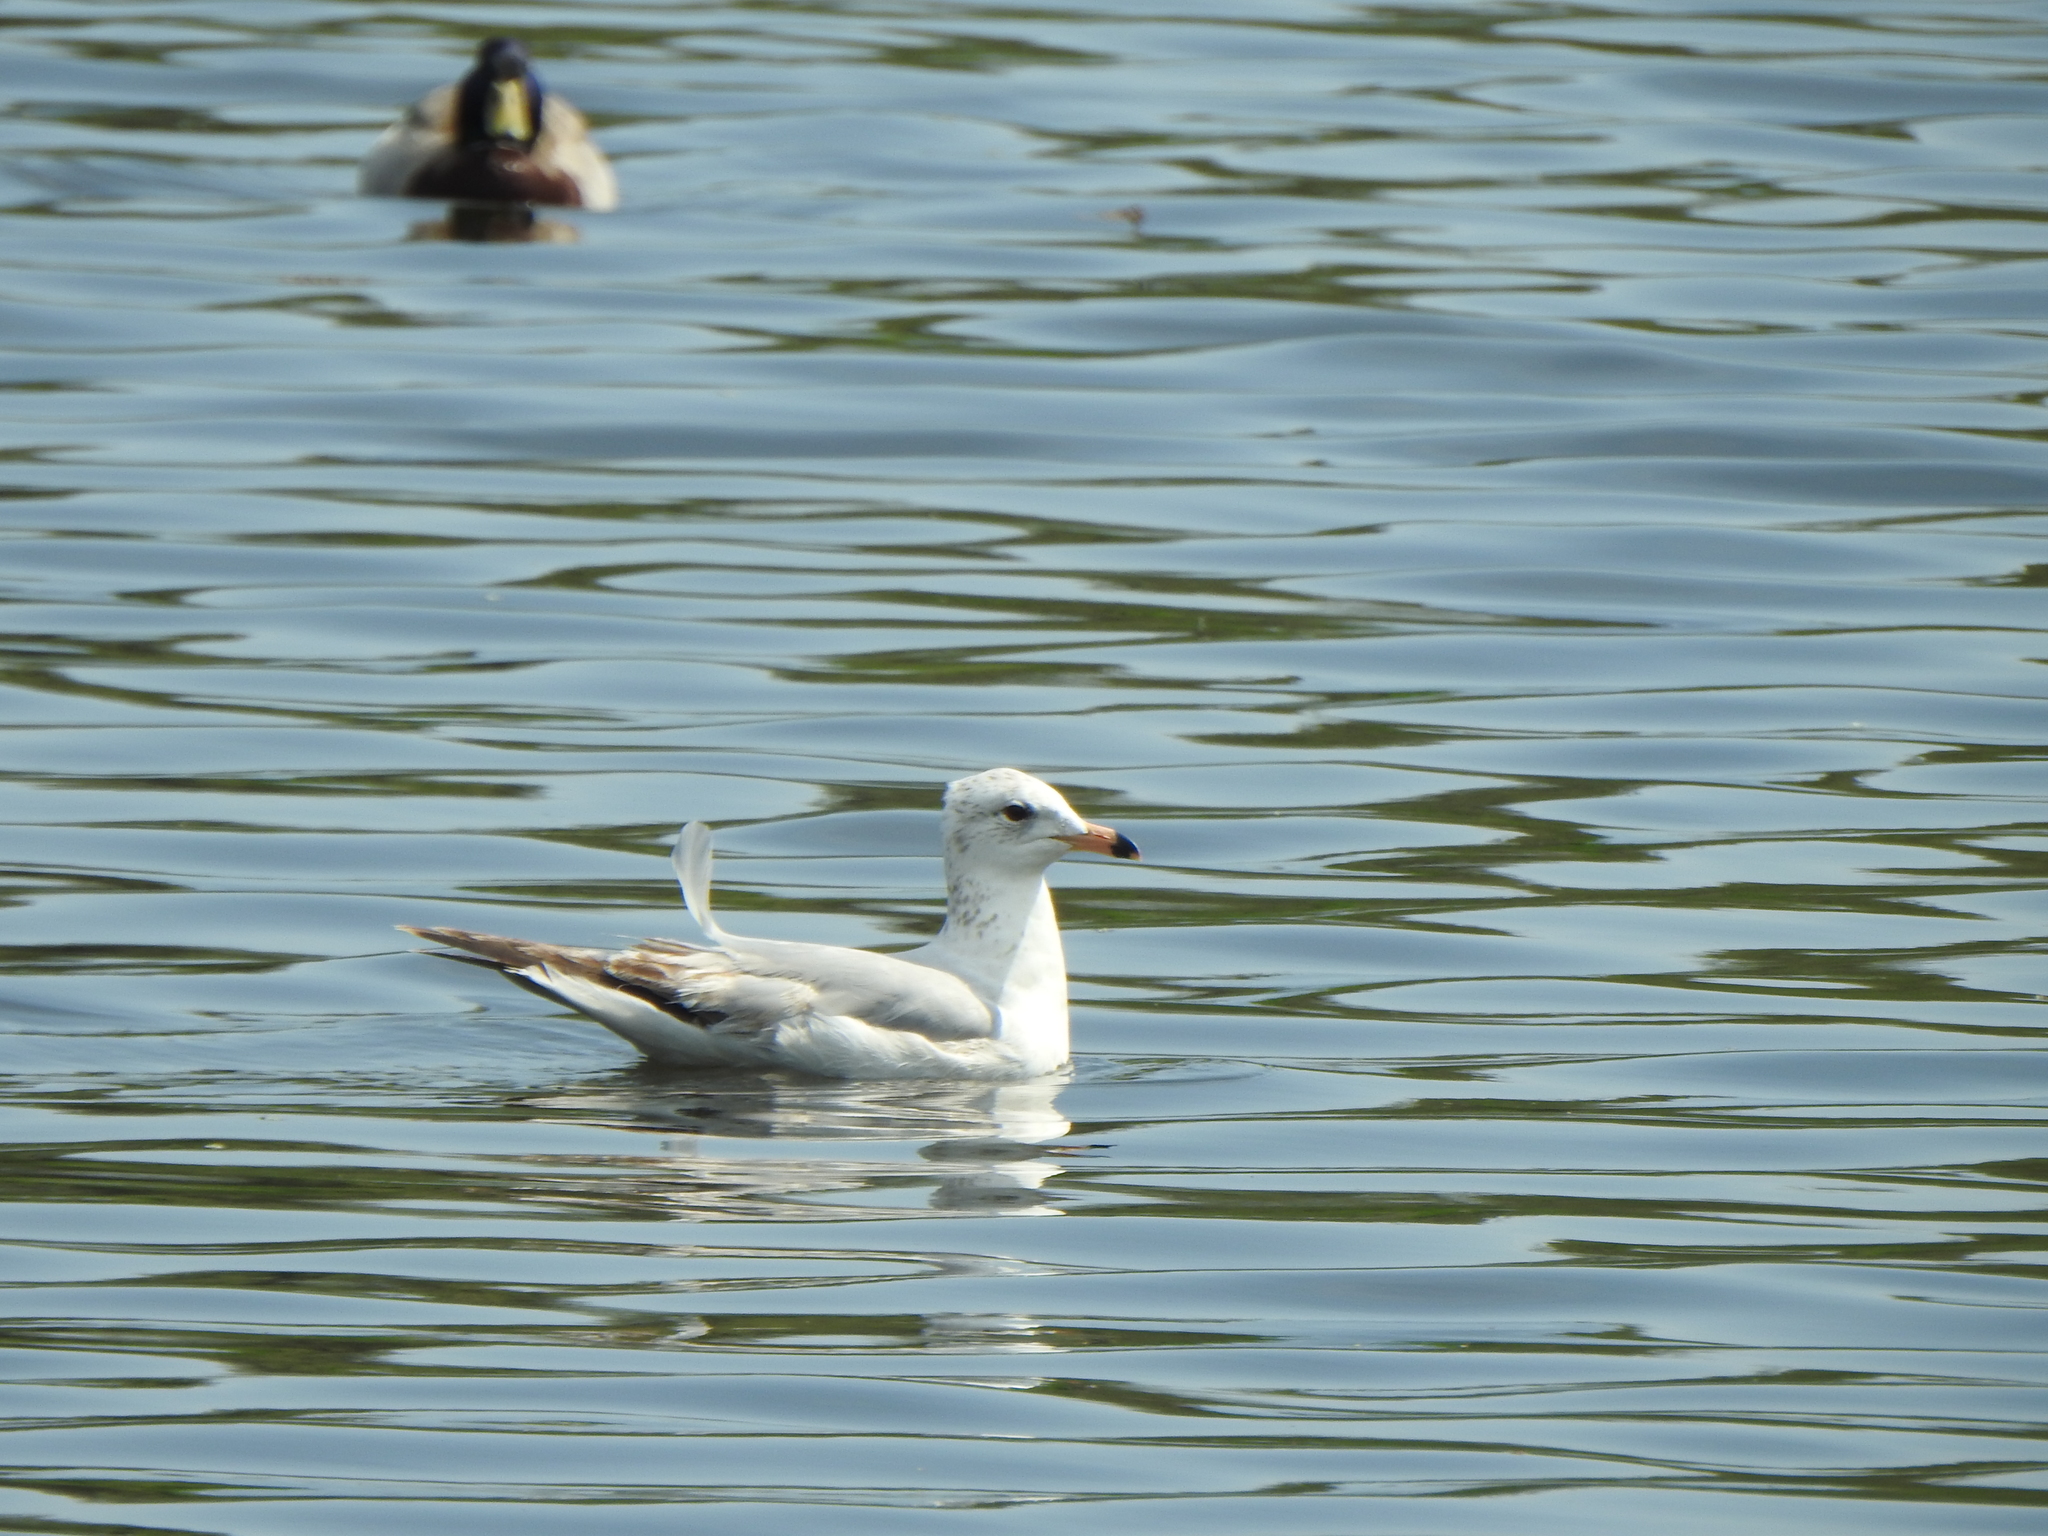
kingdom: Animalia
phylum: Chordata
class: Aves
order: Charadriiformes
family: Laridae
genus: Larus
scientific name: Larus delawarensis
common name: Ring-billed gull
